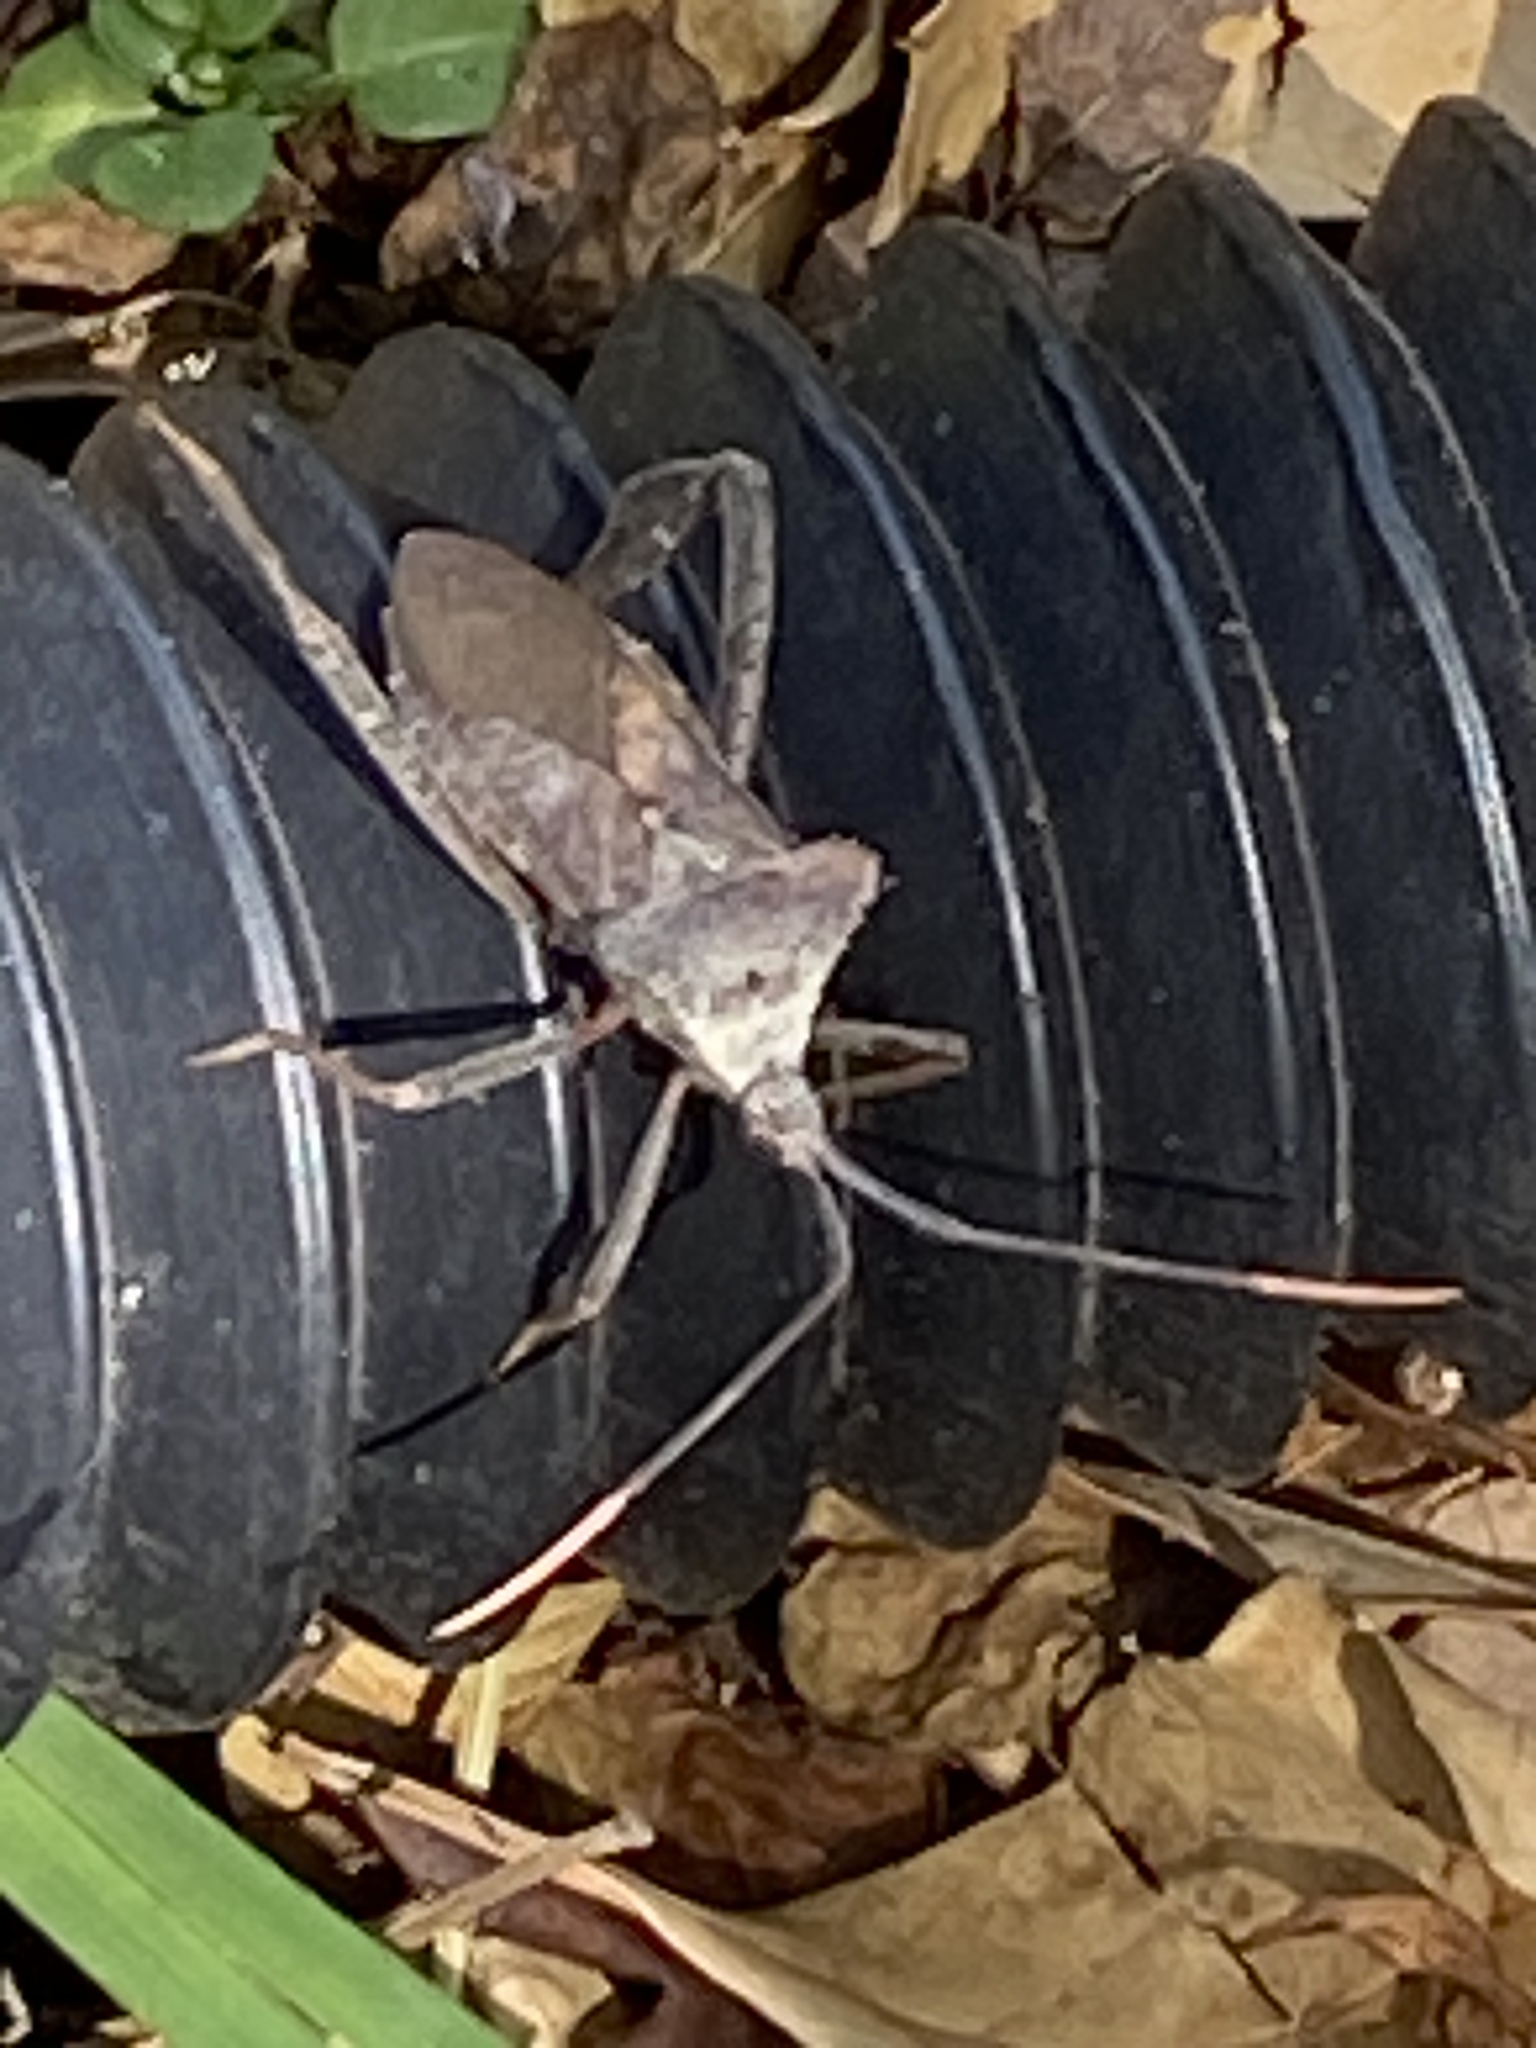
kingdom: Animalia
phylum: Arthropoda
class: Insecta
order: Hemiptera
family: Coreidae
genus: Acanthocephala
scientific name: Acanthocephala declivis
